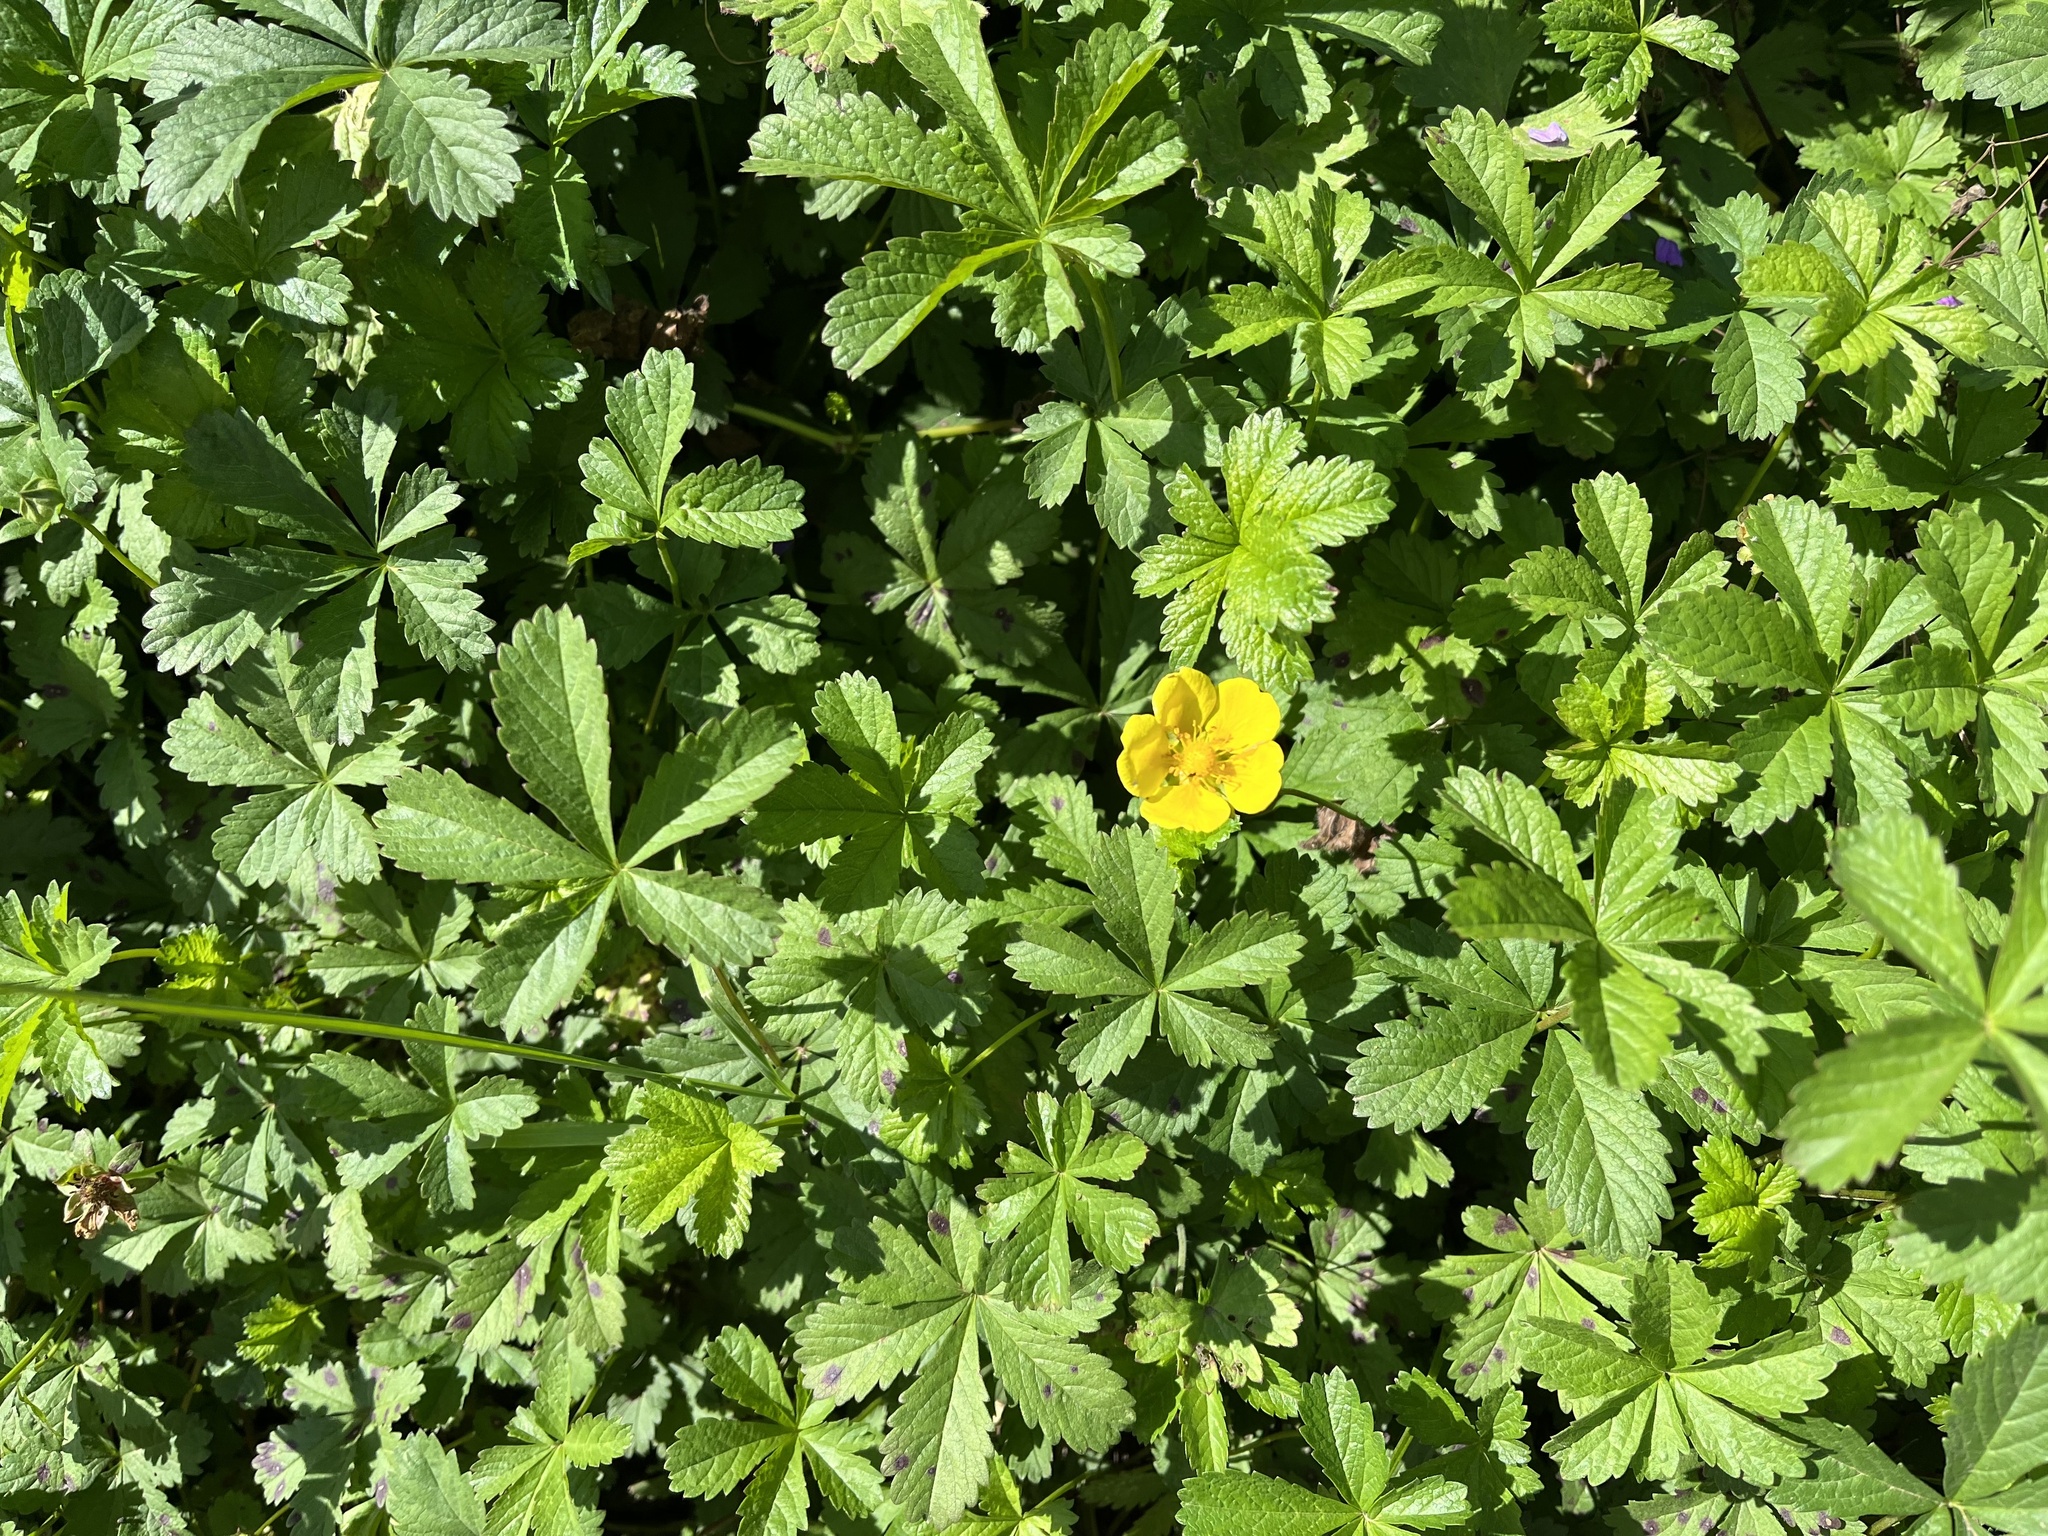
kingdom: Plantae
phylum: Tracheophyta
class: Magnoliopsida
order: Rosales
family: Rosaceae
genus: Potentilla
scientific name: Potentilla reptans
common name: Creeping cinquefoil
